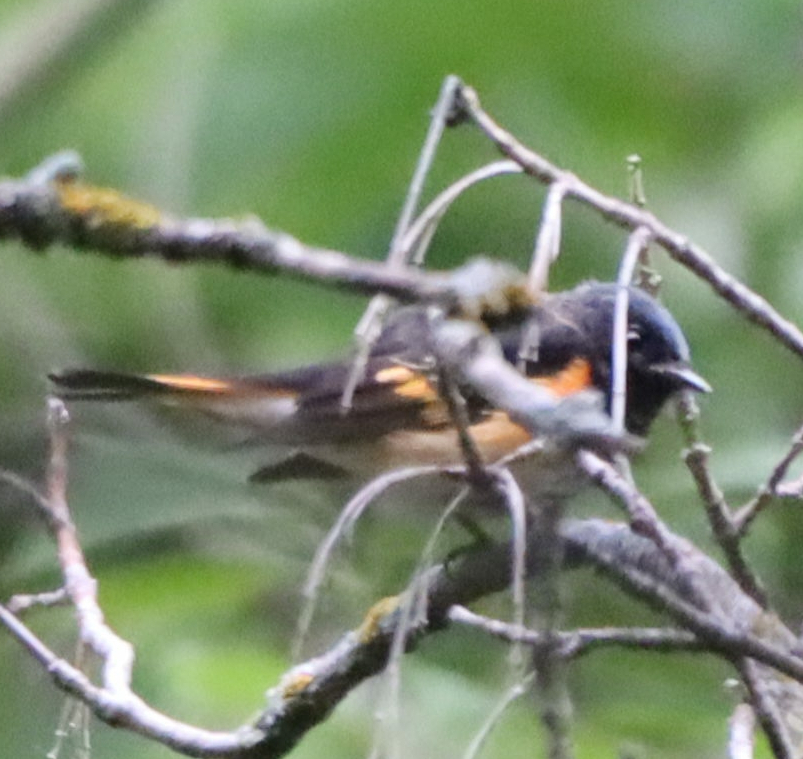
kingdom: Animalia
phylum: Chordata
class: Aves
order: Passeriformes
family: Parulidae
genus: Setophaga
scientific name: Setophaga ruticilla
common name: American redstart
